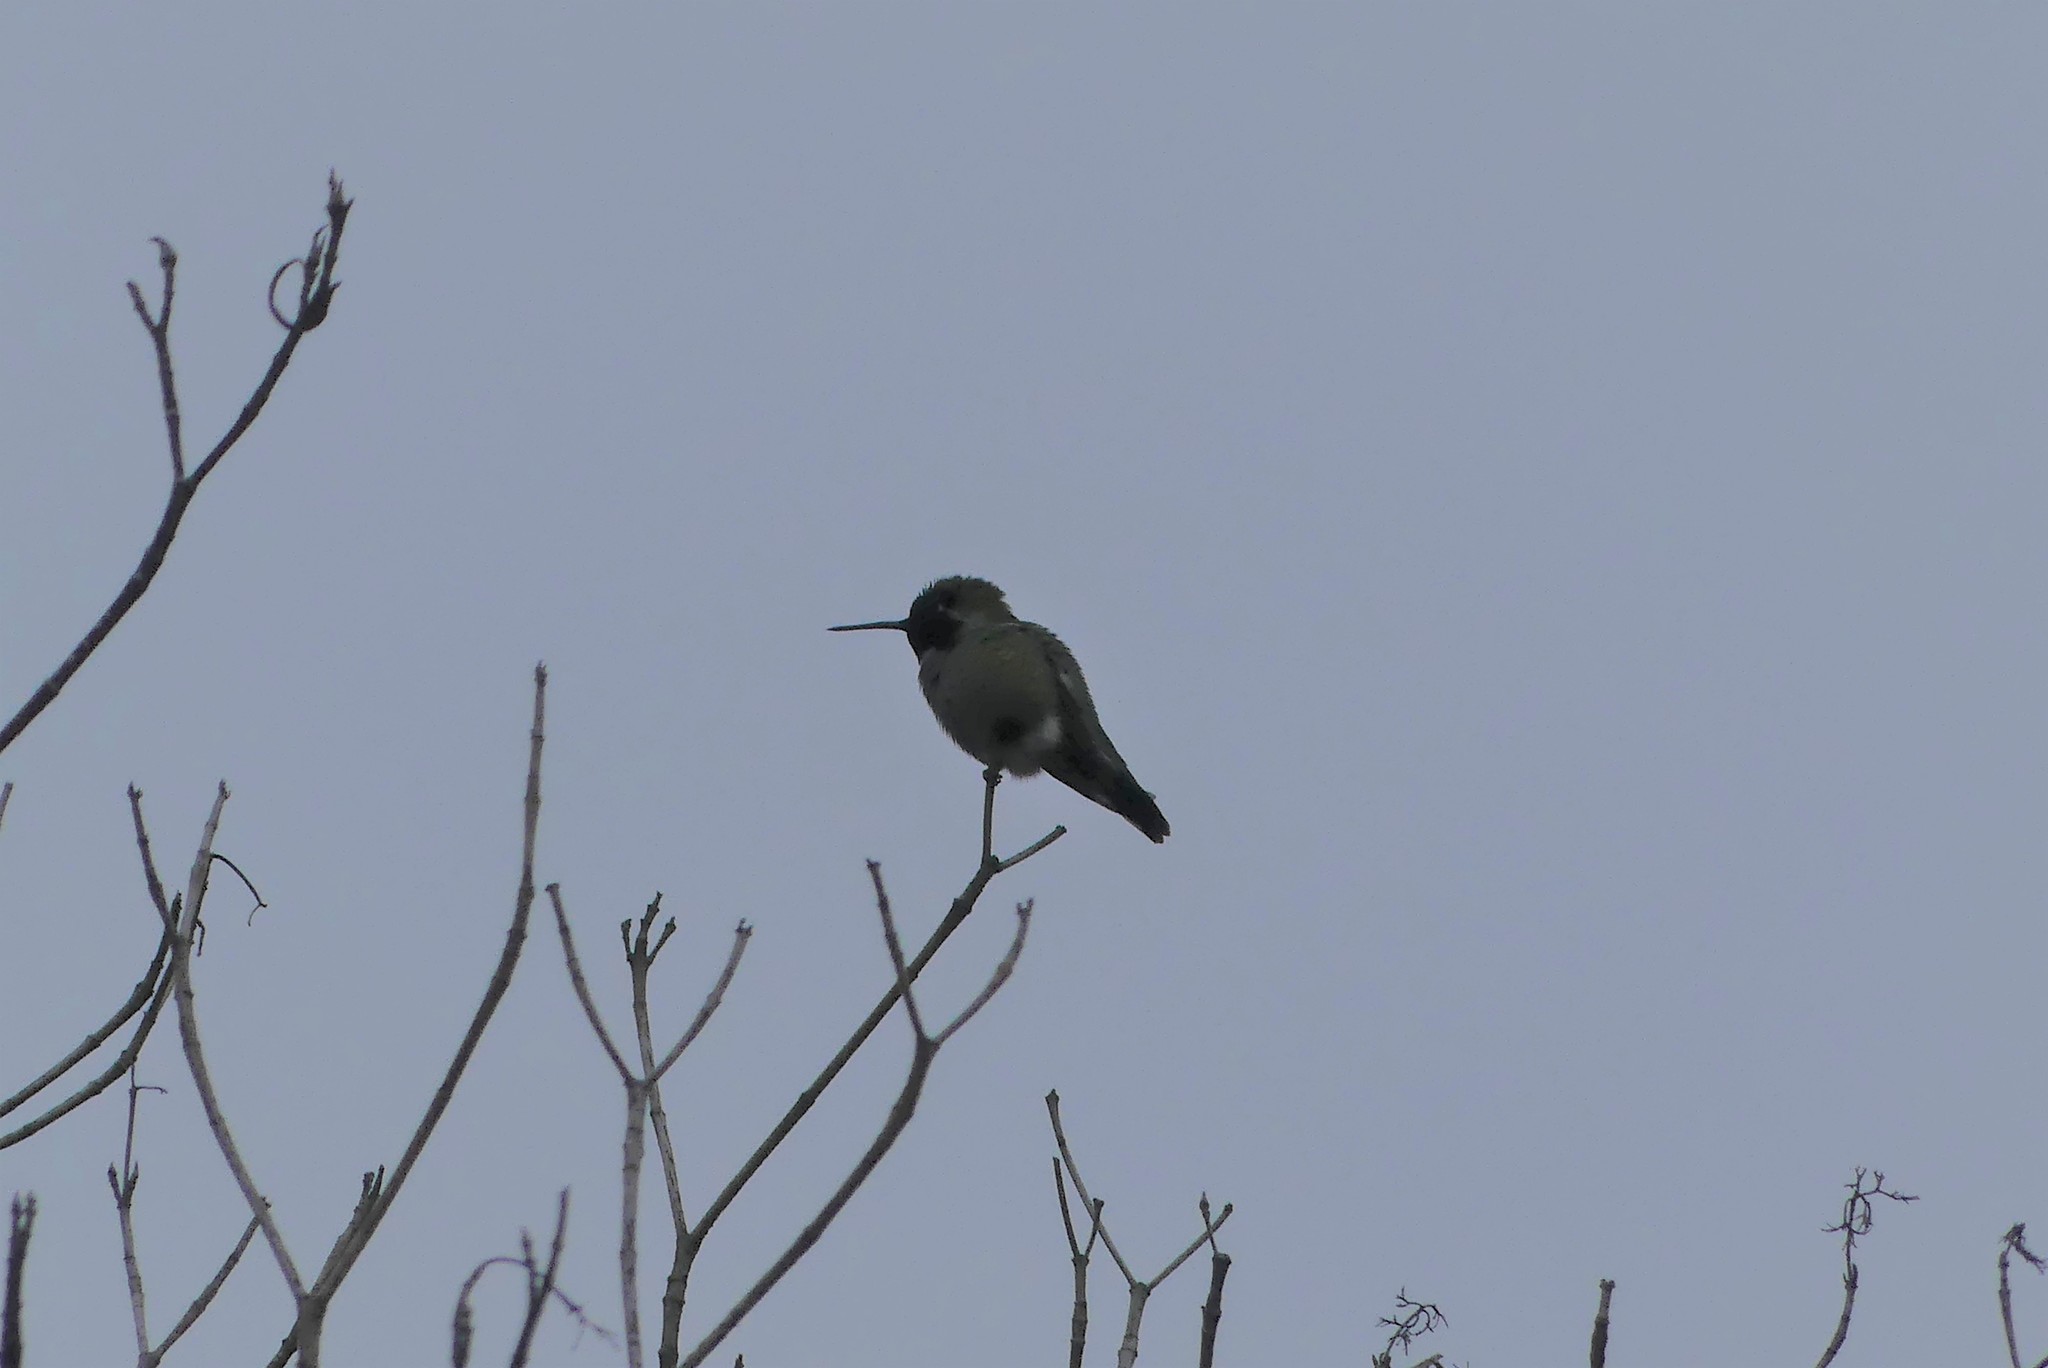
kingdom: Animalia
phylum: Chordata
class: Aves
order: Apodiformes
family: Trochilidae
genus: Calypte
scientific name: Calypte anna
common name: Anna's hummingbird
